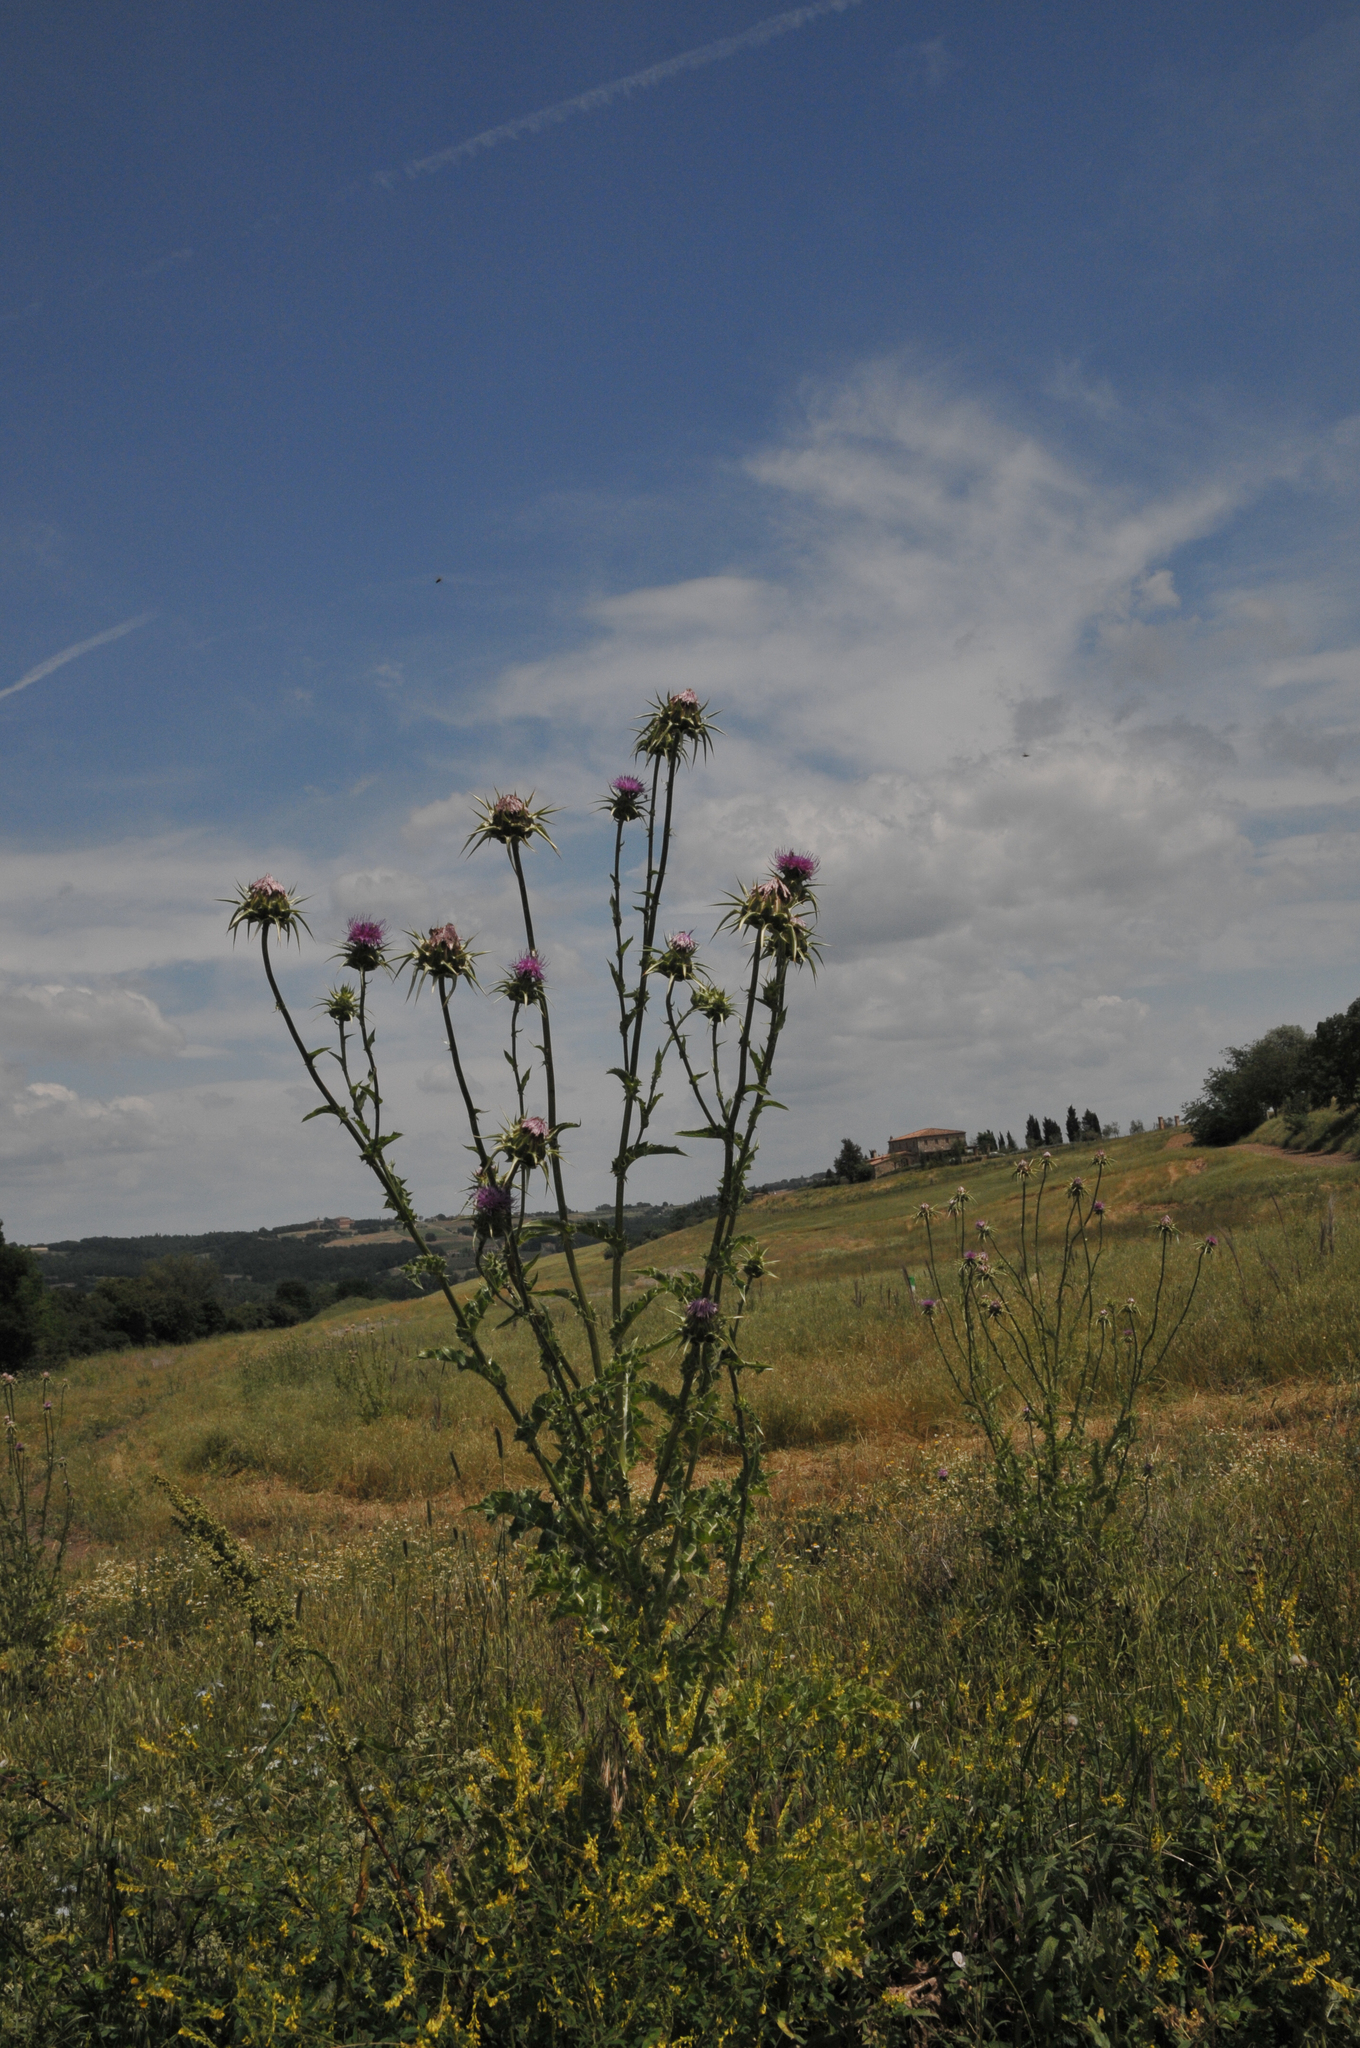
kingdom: Plantae
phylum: Tracheophyta
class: Magnoliopsida
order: Asterales
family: Asteraceae
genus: Silybum
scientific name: Silybum marianum
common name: Milk thistle
